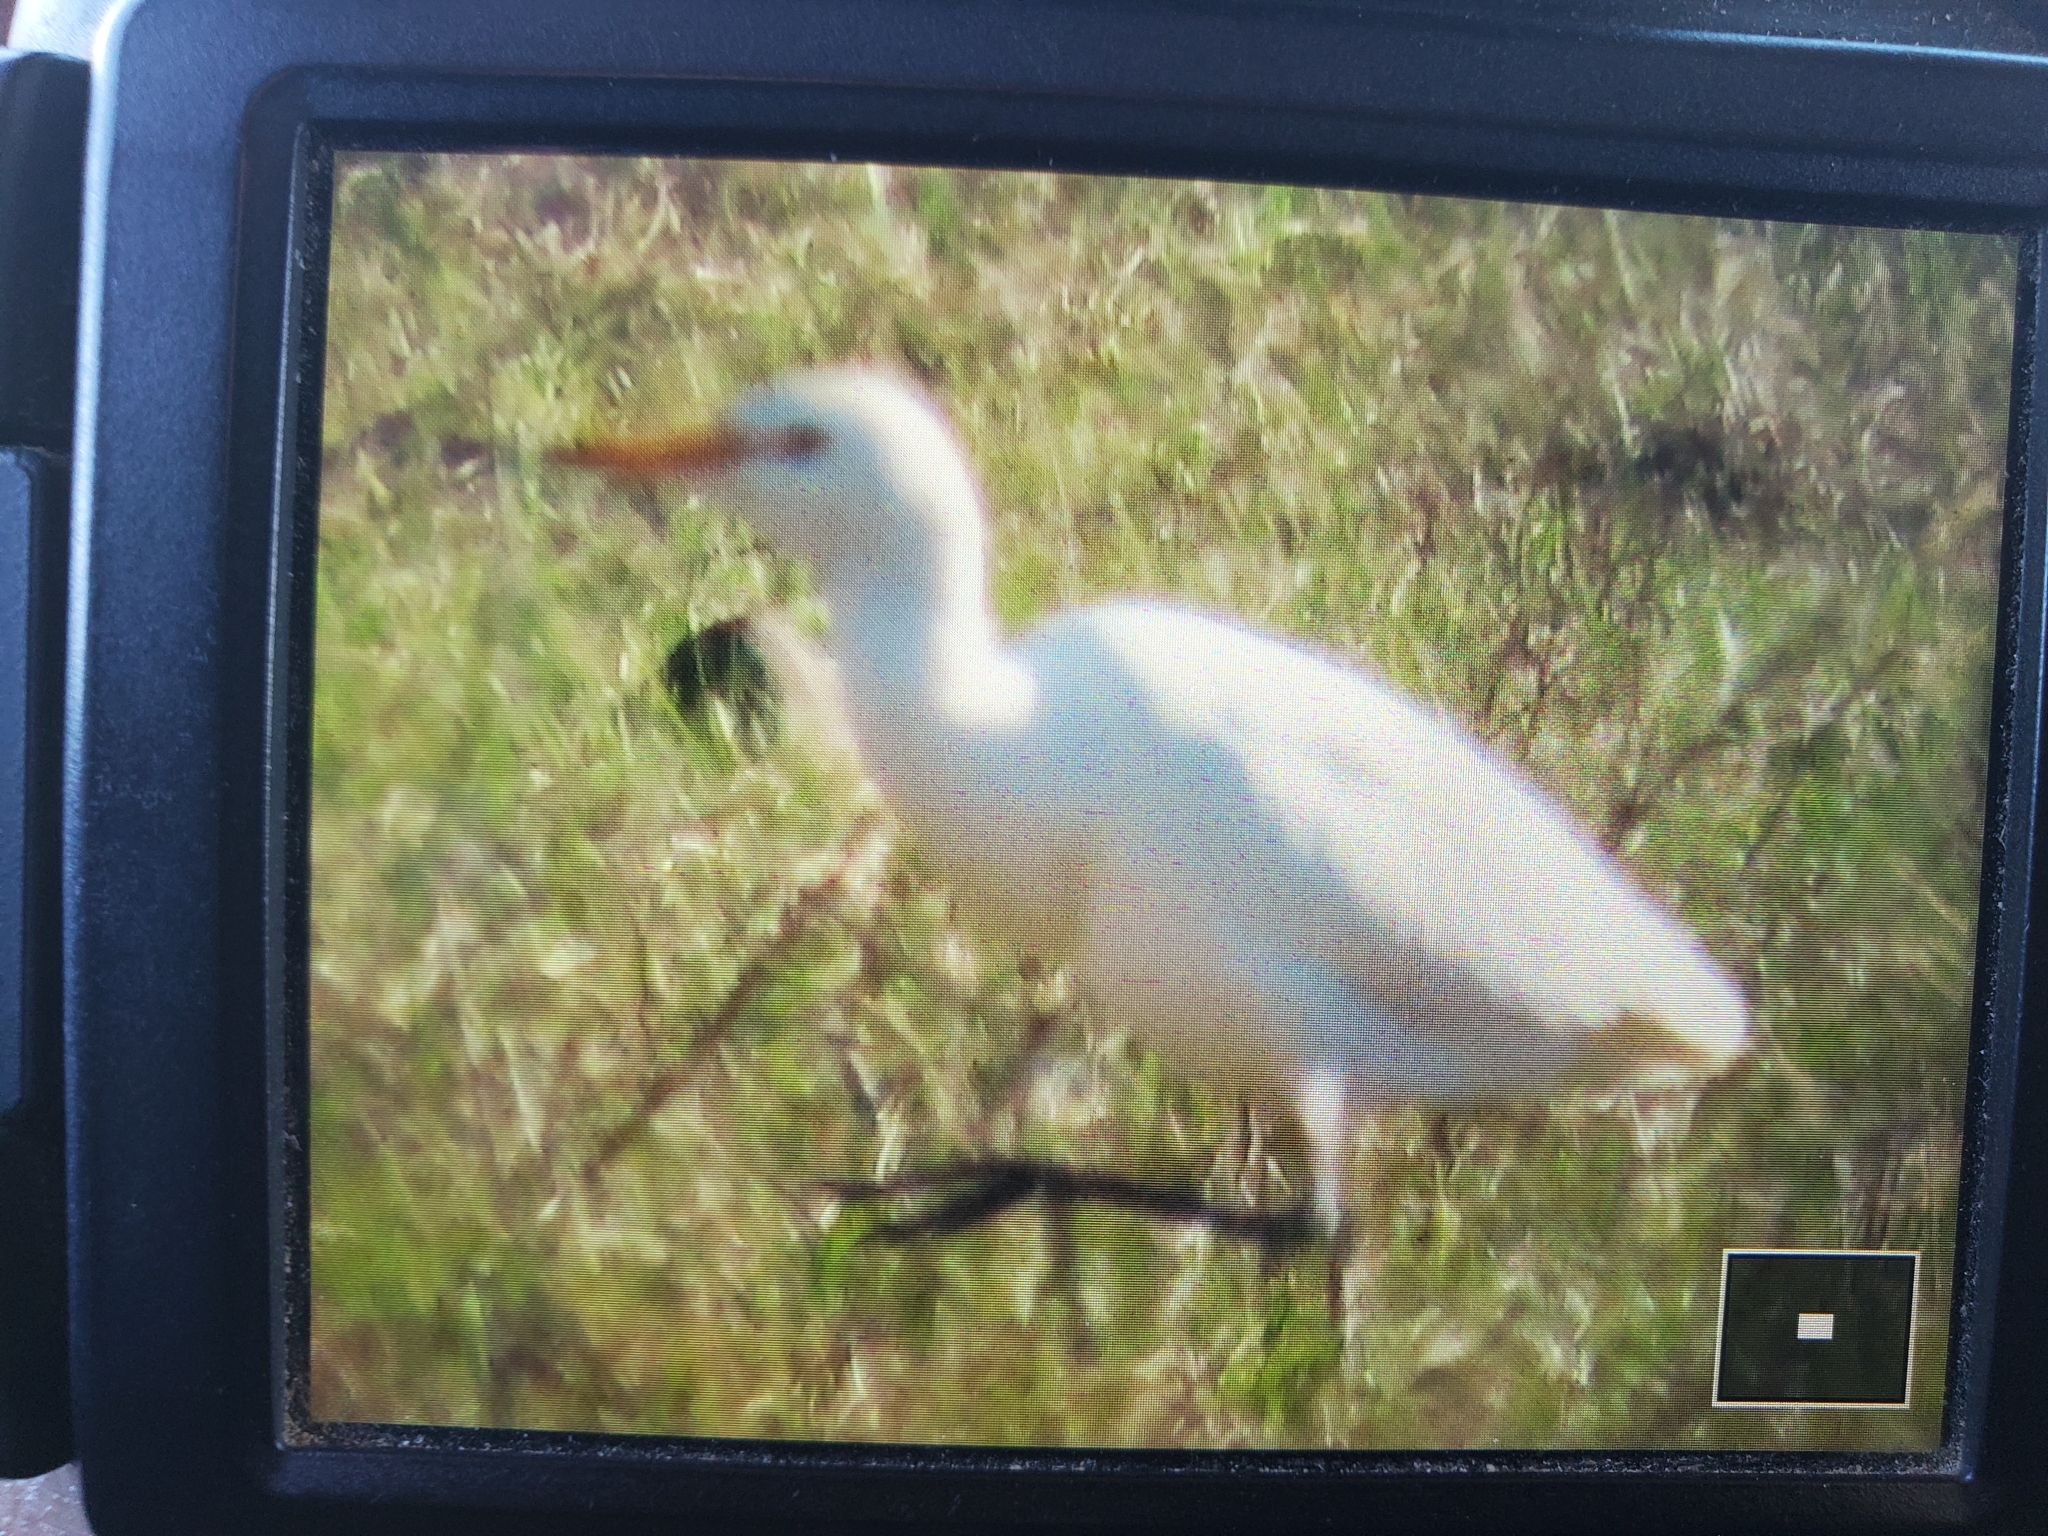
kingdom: Animalia
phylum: Chordata
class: Aves
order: Pelecaniformes
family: Ardeidae
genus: Bubulcus
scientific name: Bubulcus ibis
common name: Cattle egret
